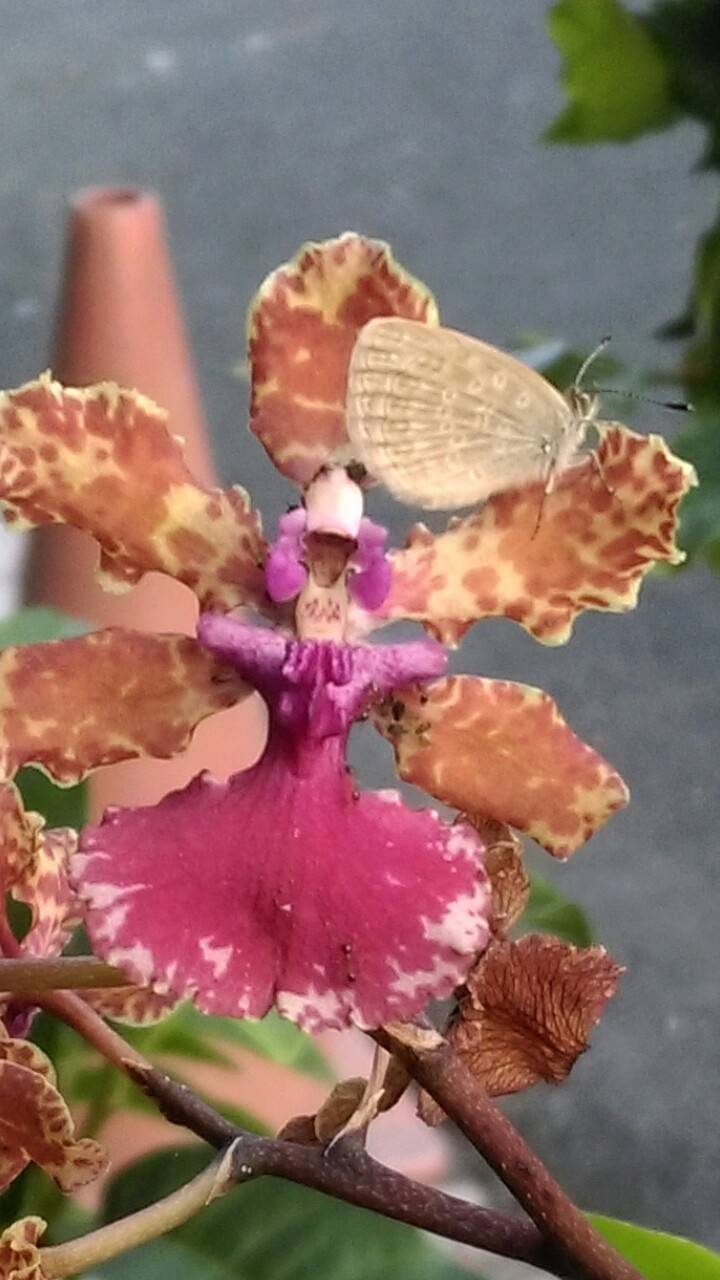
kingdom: Animalia
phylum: Arthropoda
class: Insecta
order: Lepidoptera
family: Lycaenidae
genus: Pseudozizeeria
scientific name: Pseudozizeeria maha
